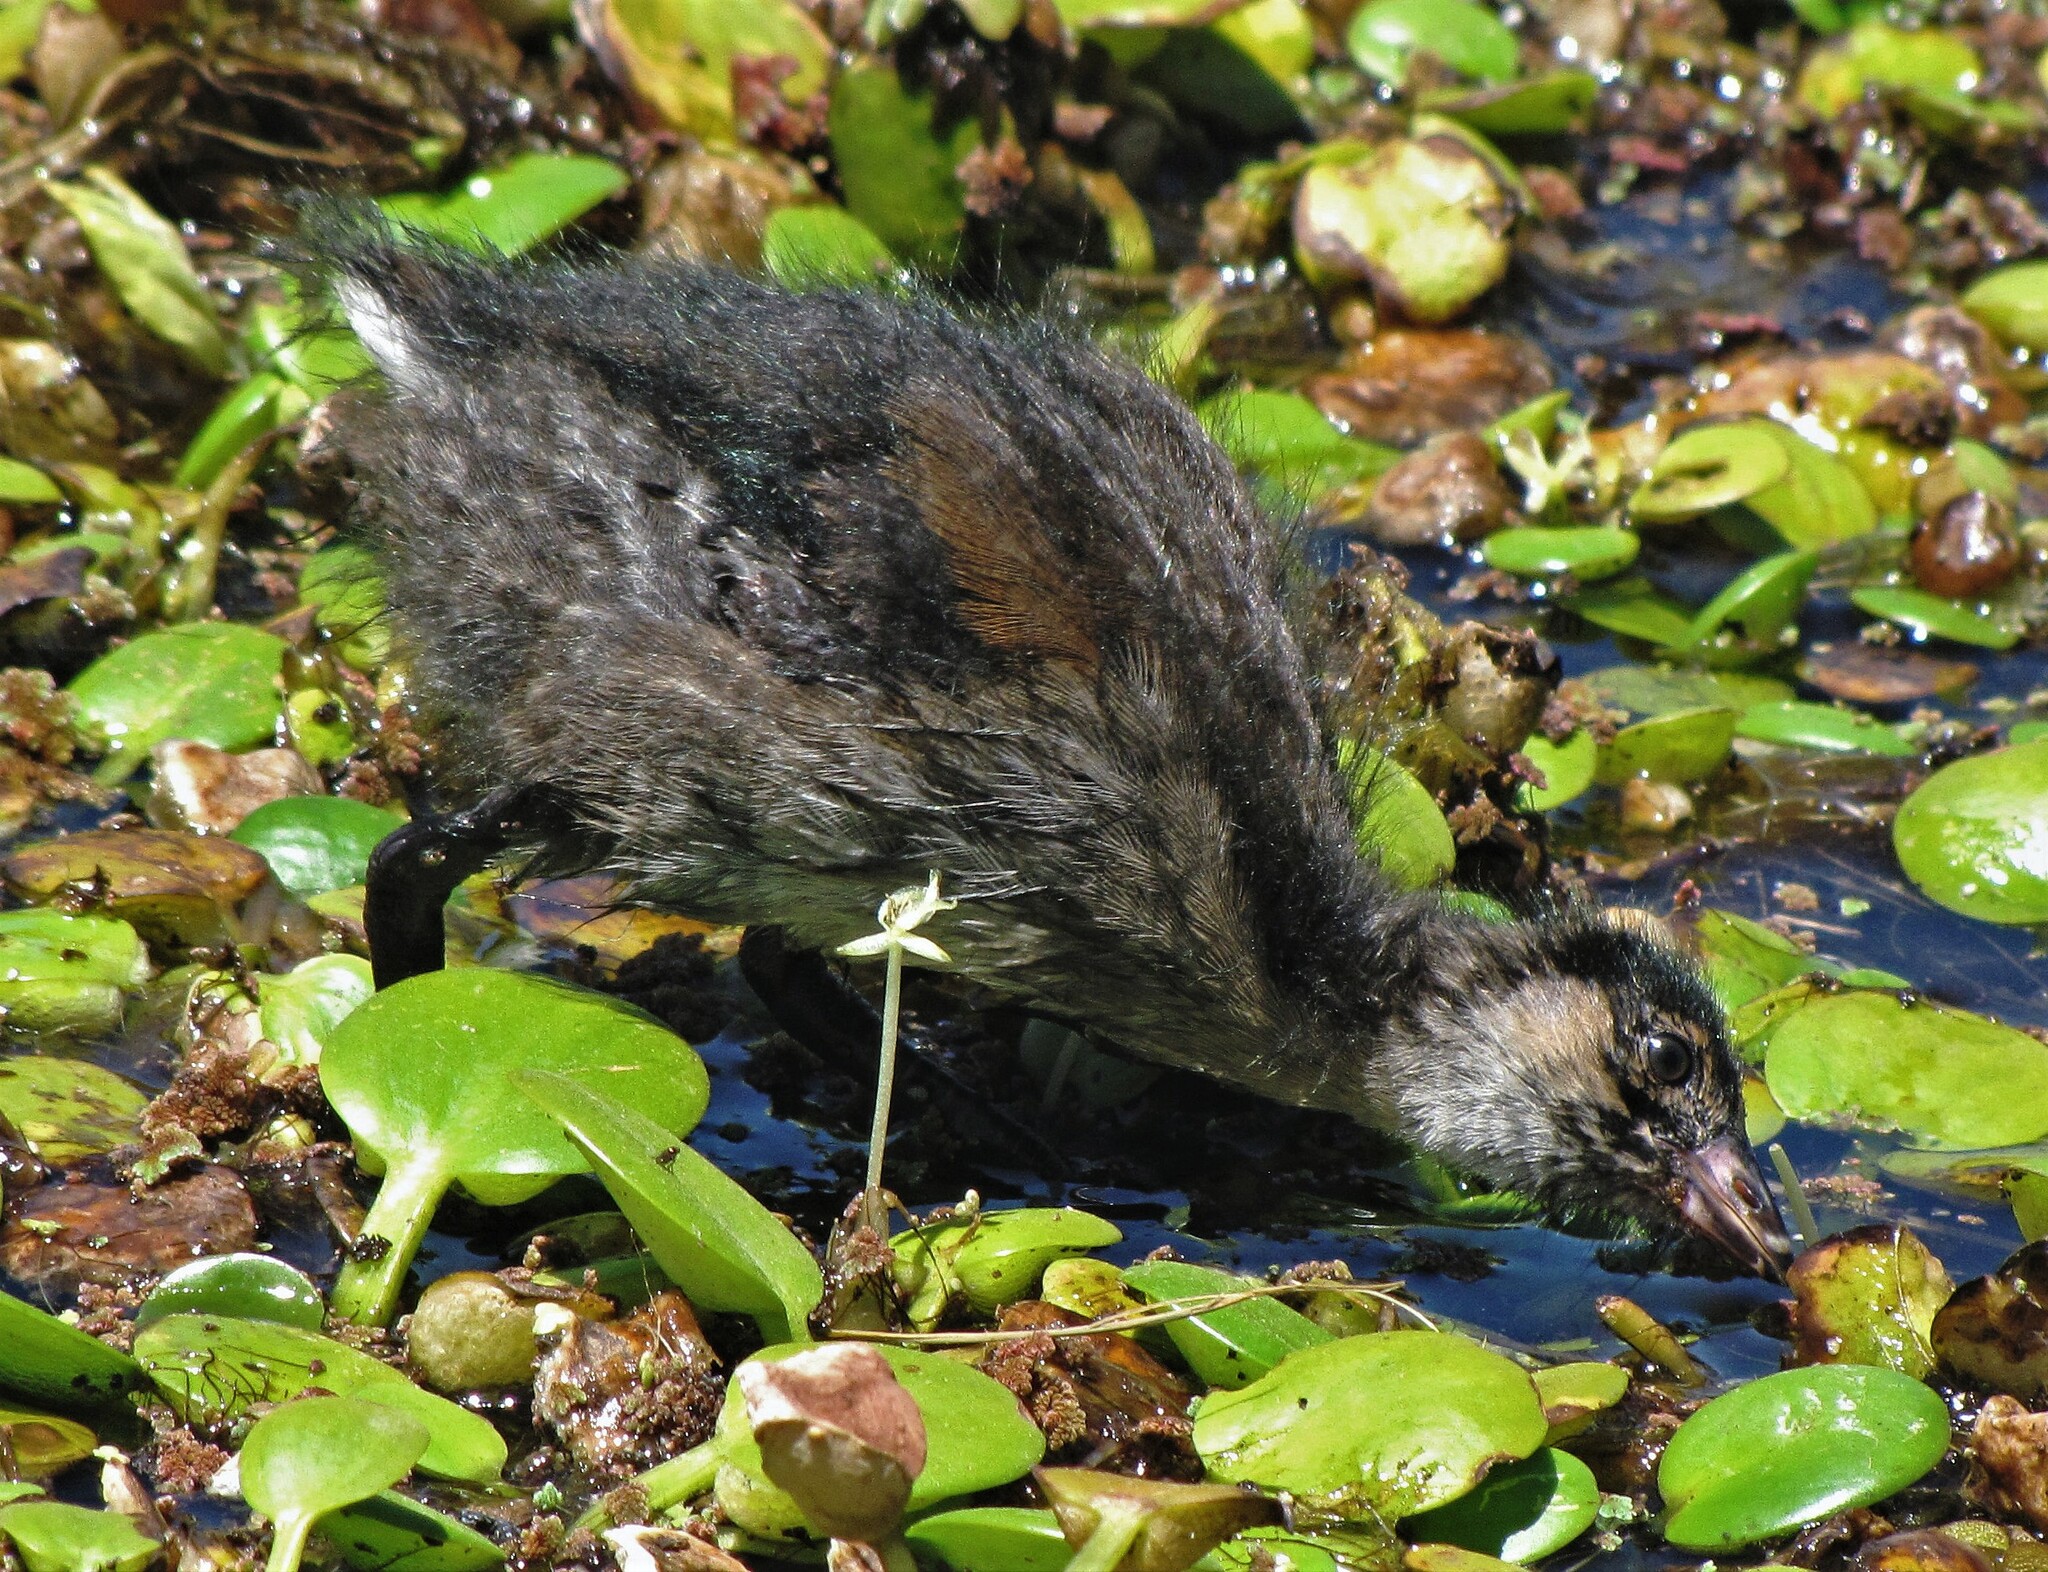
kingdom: Animalia
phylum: Chordata
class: Aves
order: Gruiformes
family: Rallidae
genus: Gallinula
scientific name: Gallinula melanops
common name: Spot-flanked gallinule
